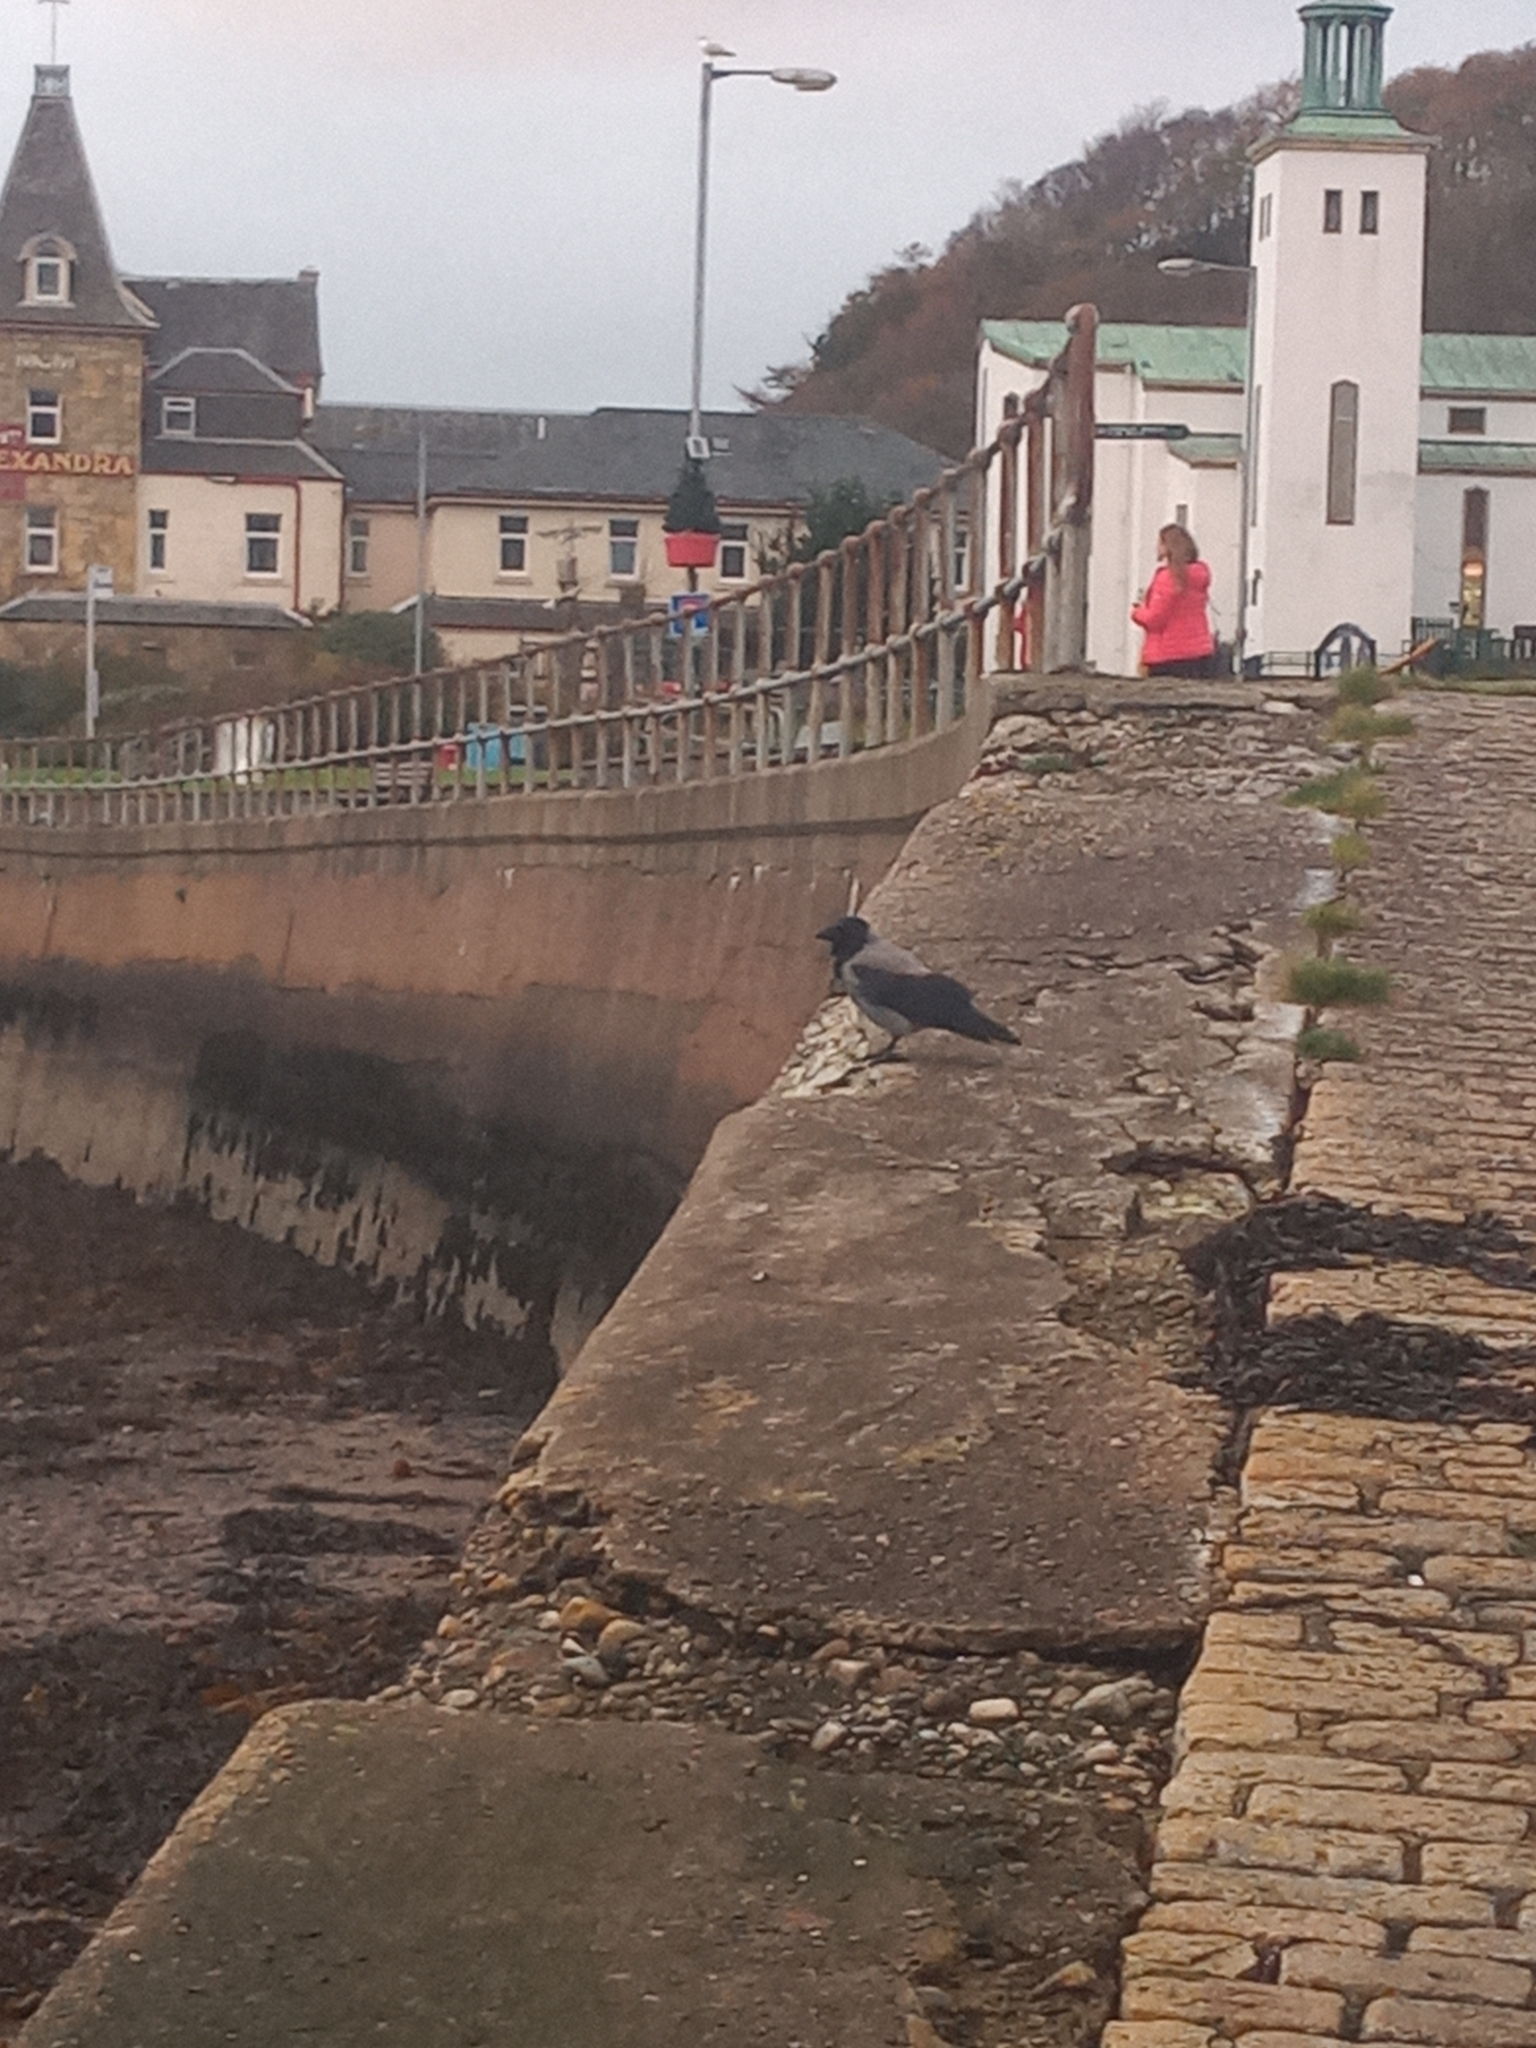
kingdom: Animalia
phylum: Chordata
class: Aves
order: Passeriformes
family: Corvidae
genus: Corvus
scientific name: Corvus cornix
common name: Hooded crow
